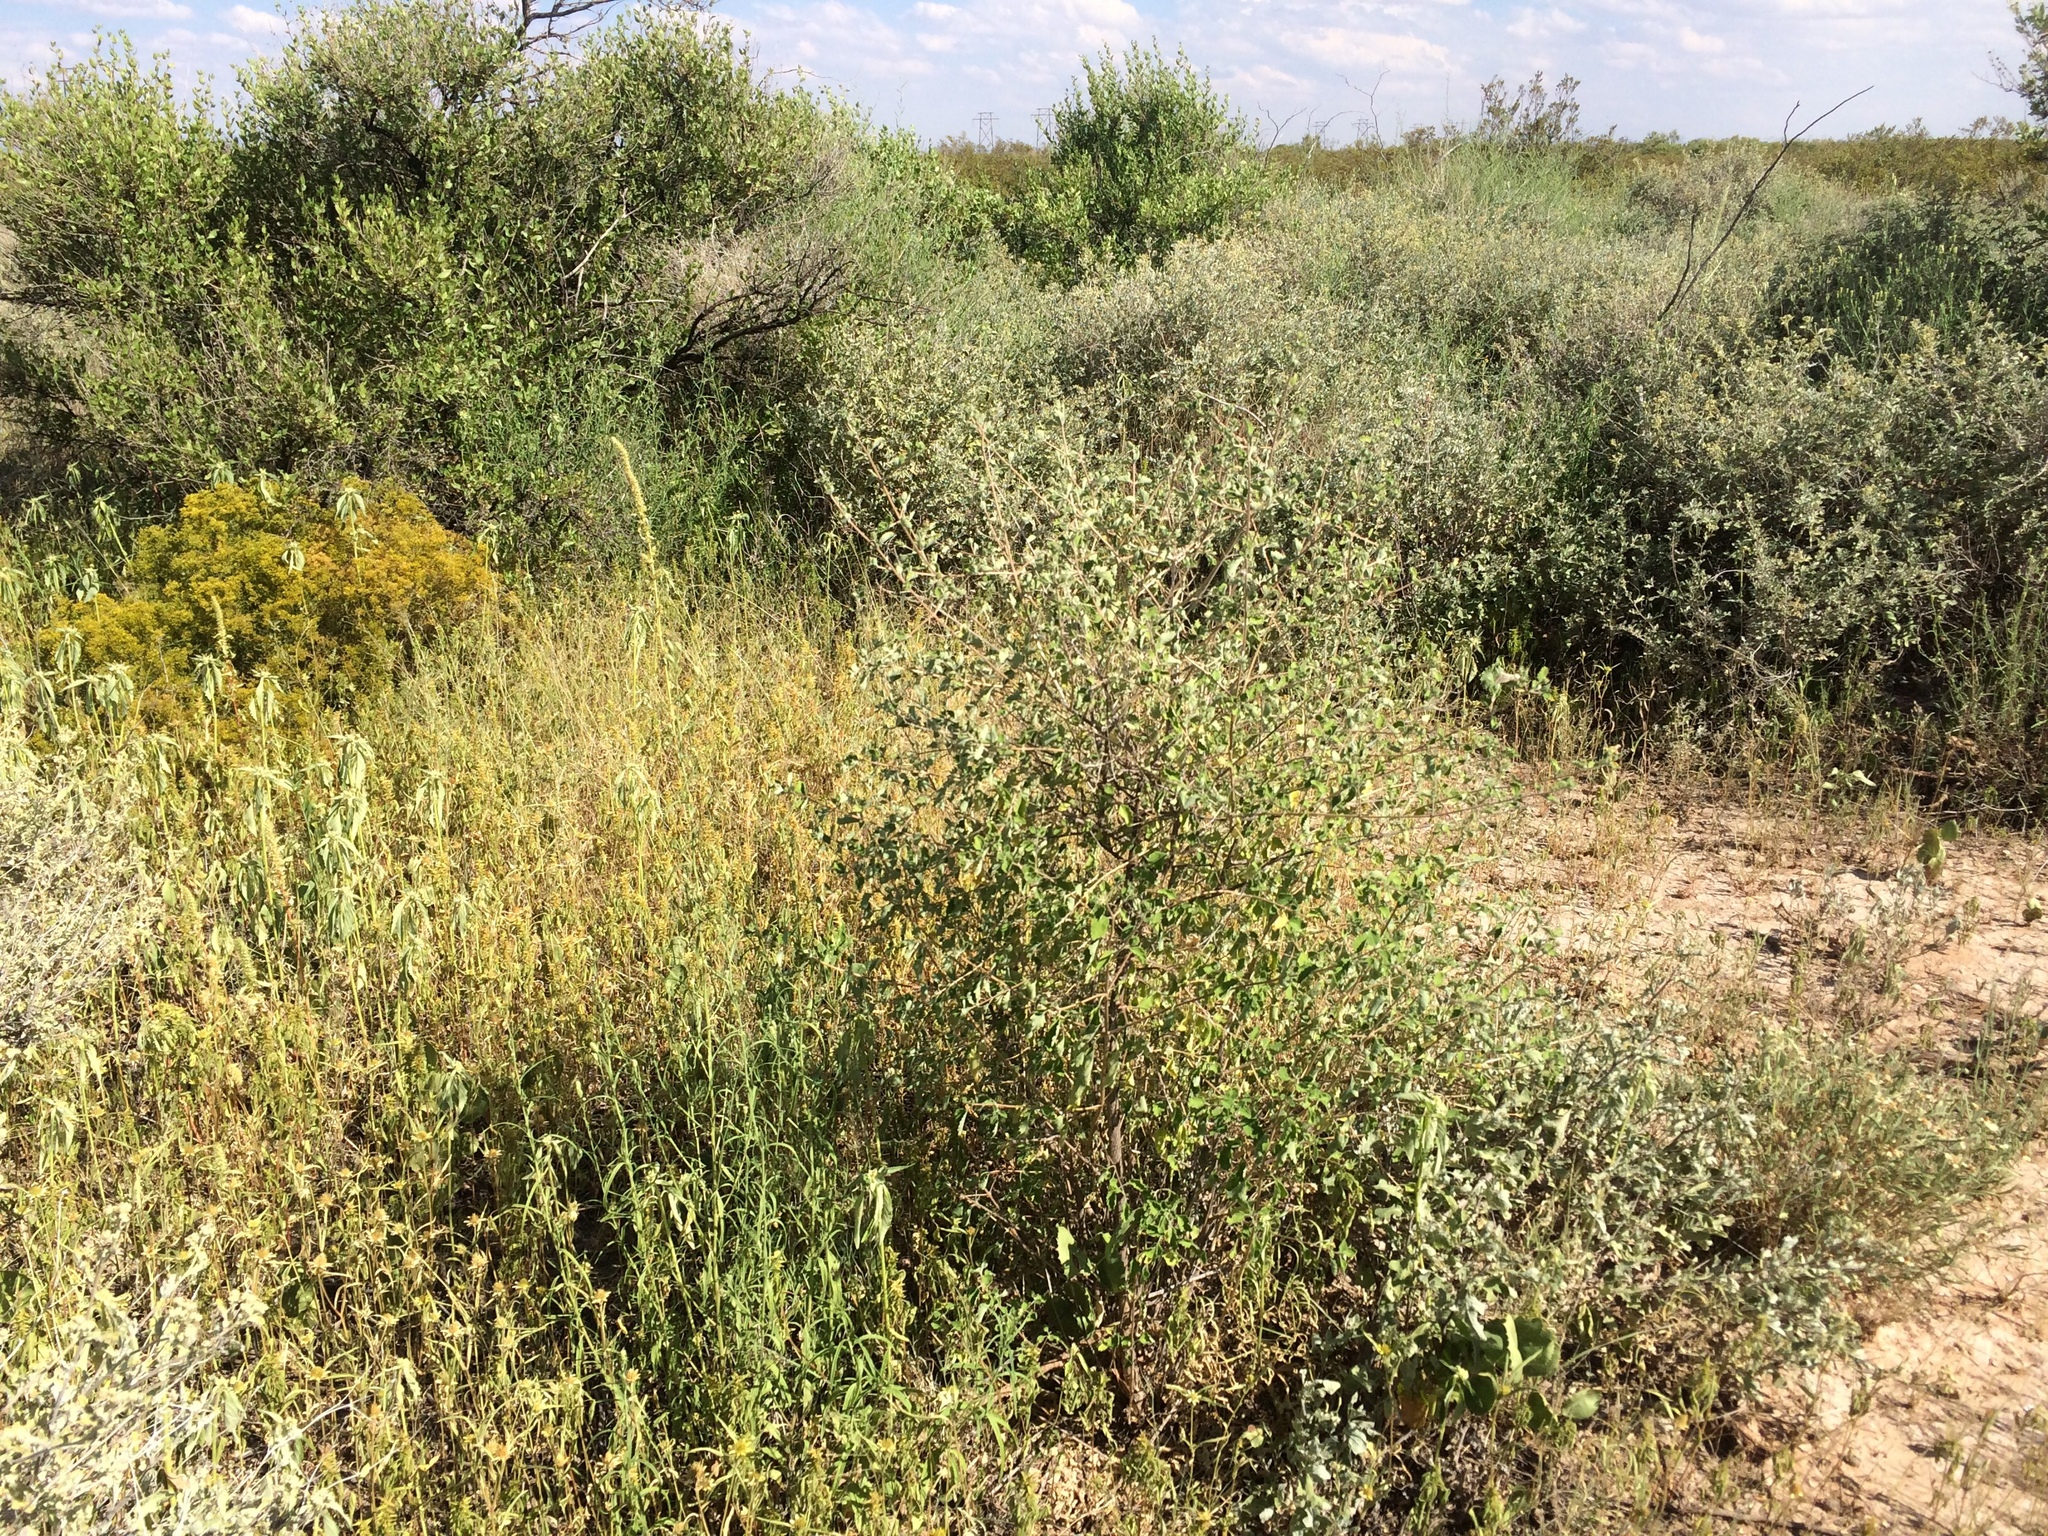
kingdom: Plantae
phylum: Tracheophyta
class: Magnoliopsida
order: Lamiales
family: Verbenaceae
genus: Aloysia
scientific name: Aloysia wrightii
